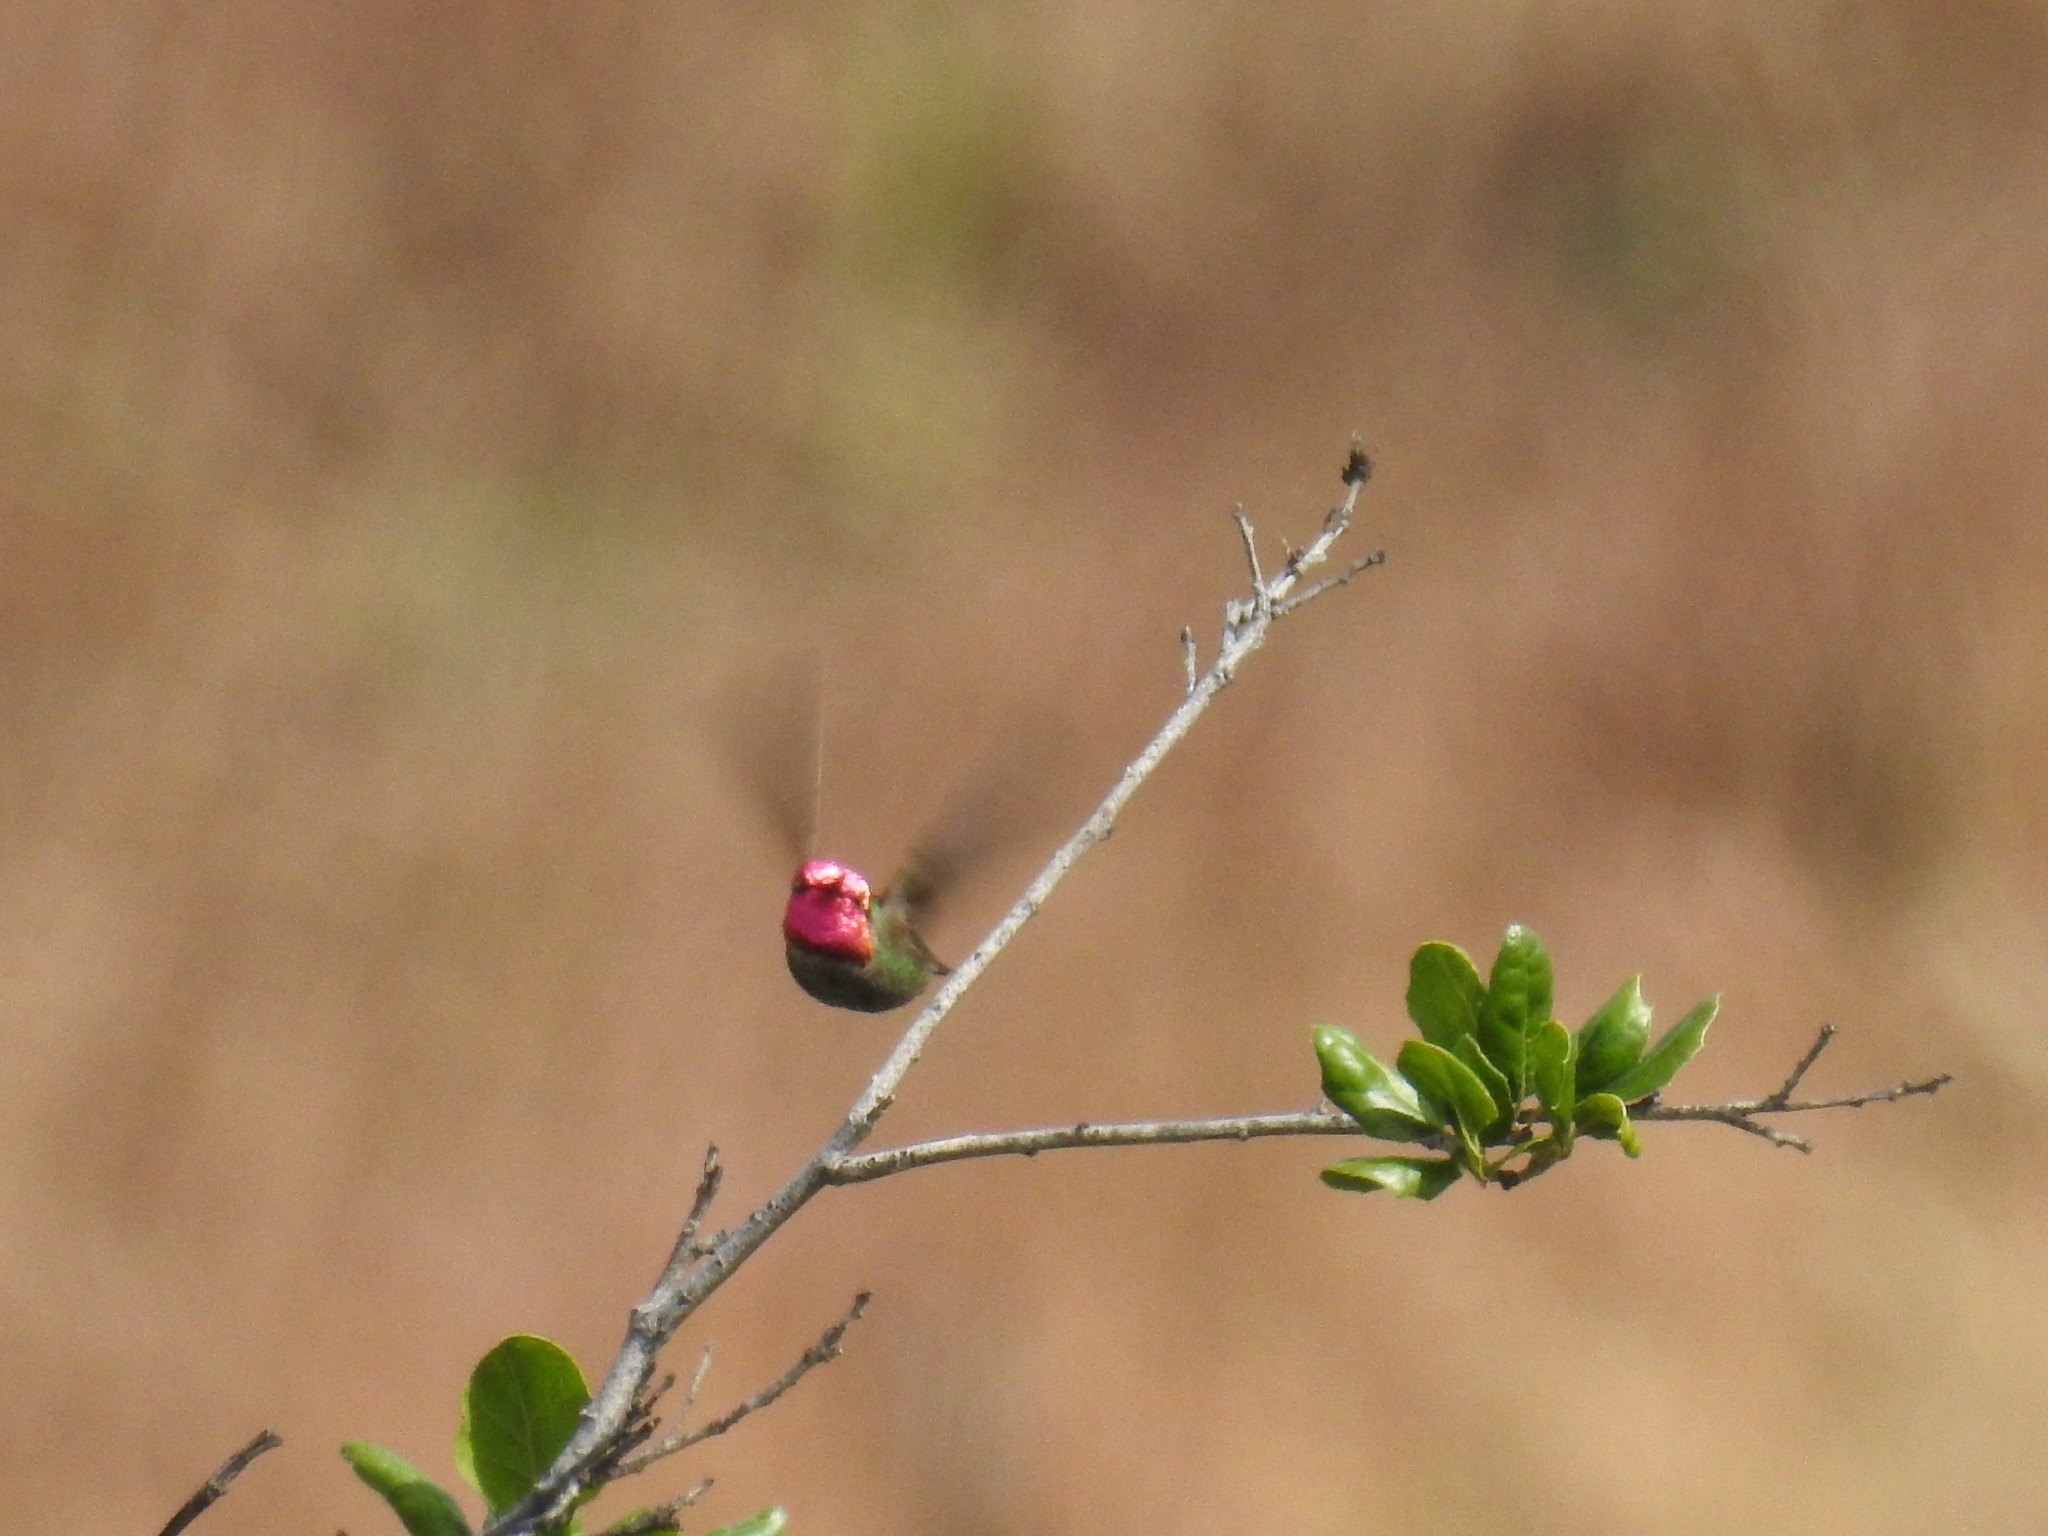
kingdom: Animalia
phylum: Chordata
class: Aves
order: Apodiformes
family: Trochilidae
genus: Calypte
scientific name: Calypte anna
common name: Anna's hummingbird
